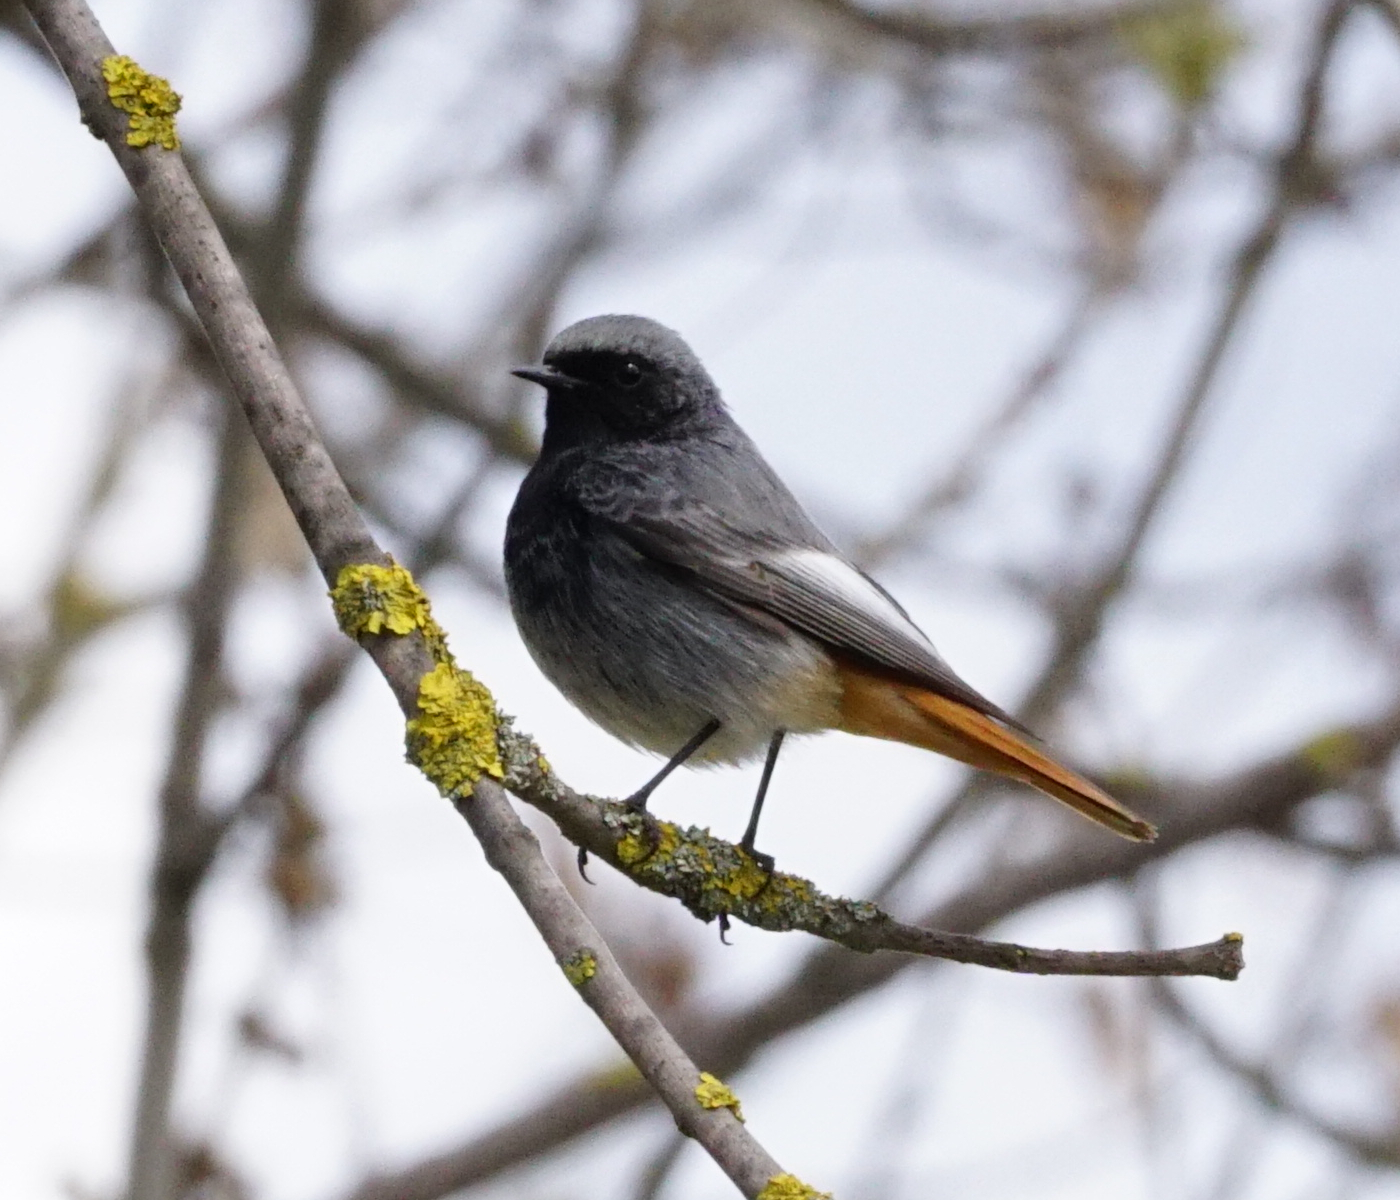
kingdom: Animalia
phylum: Chordata
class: Aves
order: Passeriformes
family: Muscicapidae
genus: Phoenicurus
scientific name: Phoenicurus ochruros
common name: Black redstart
